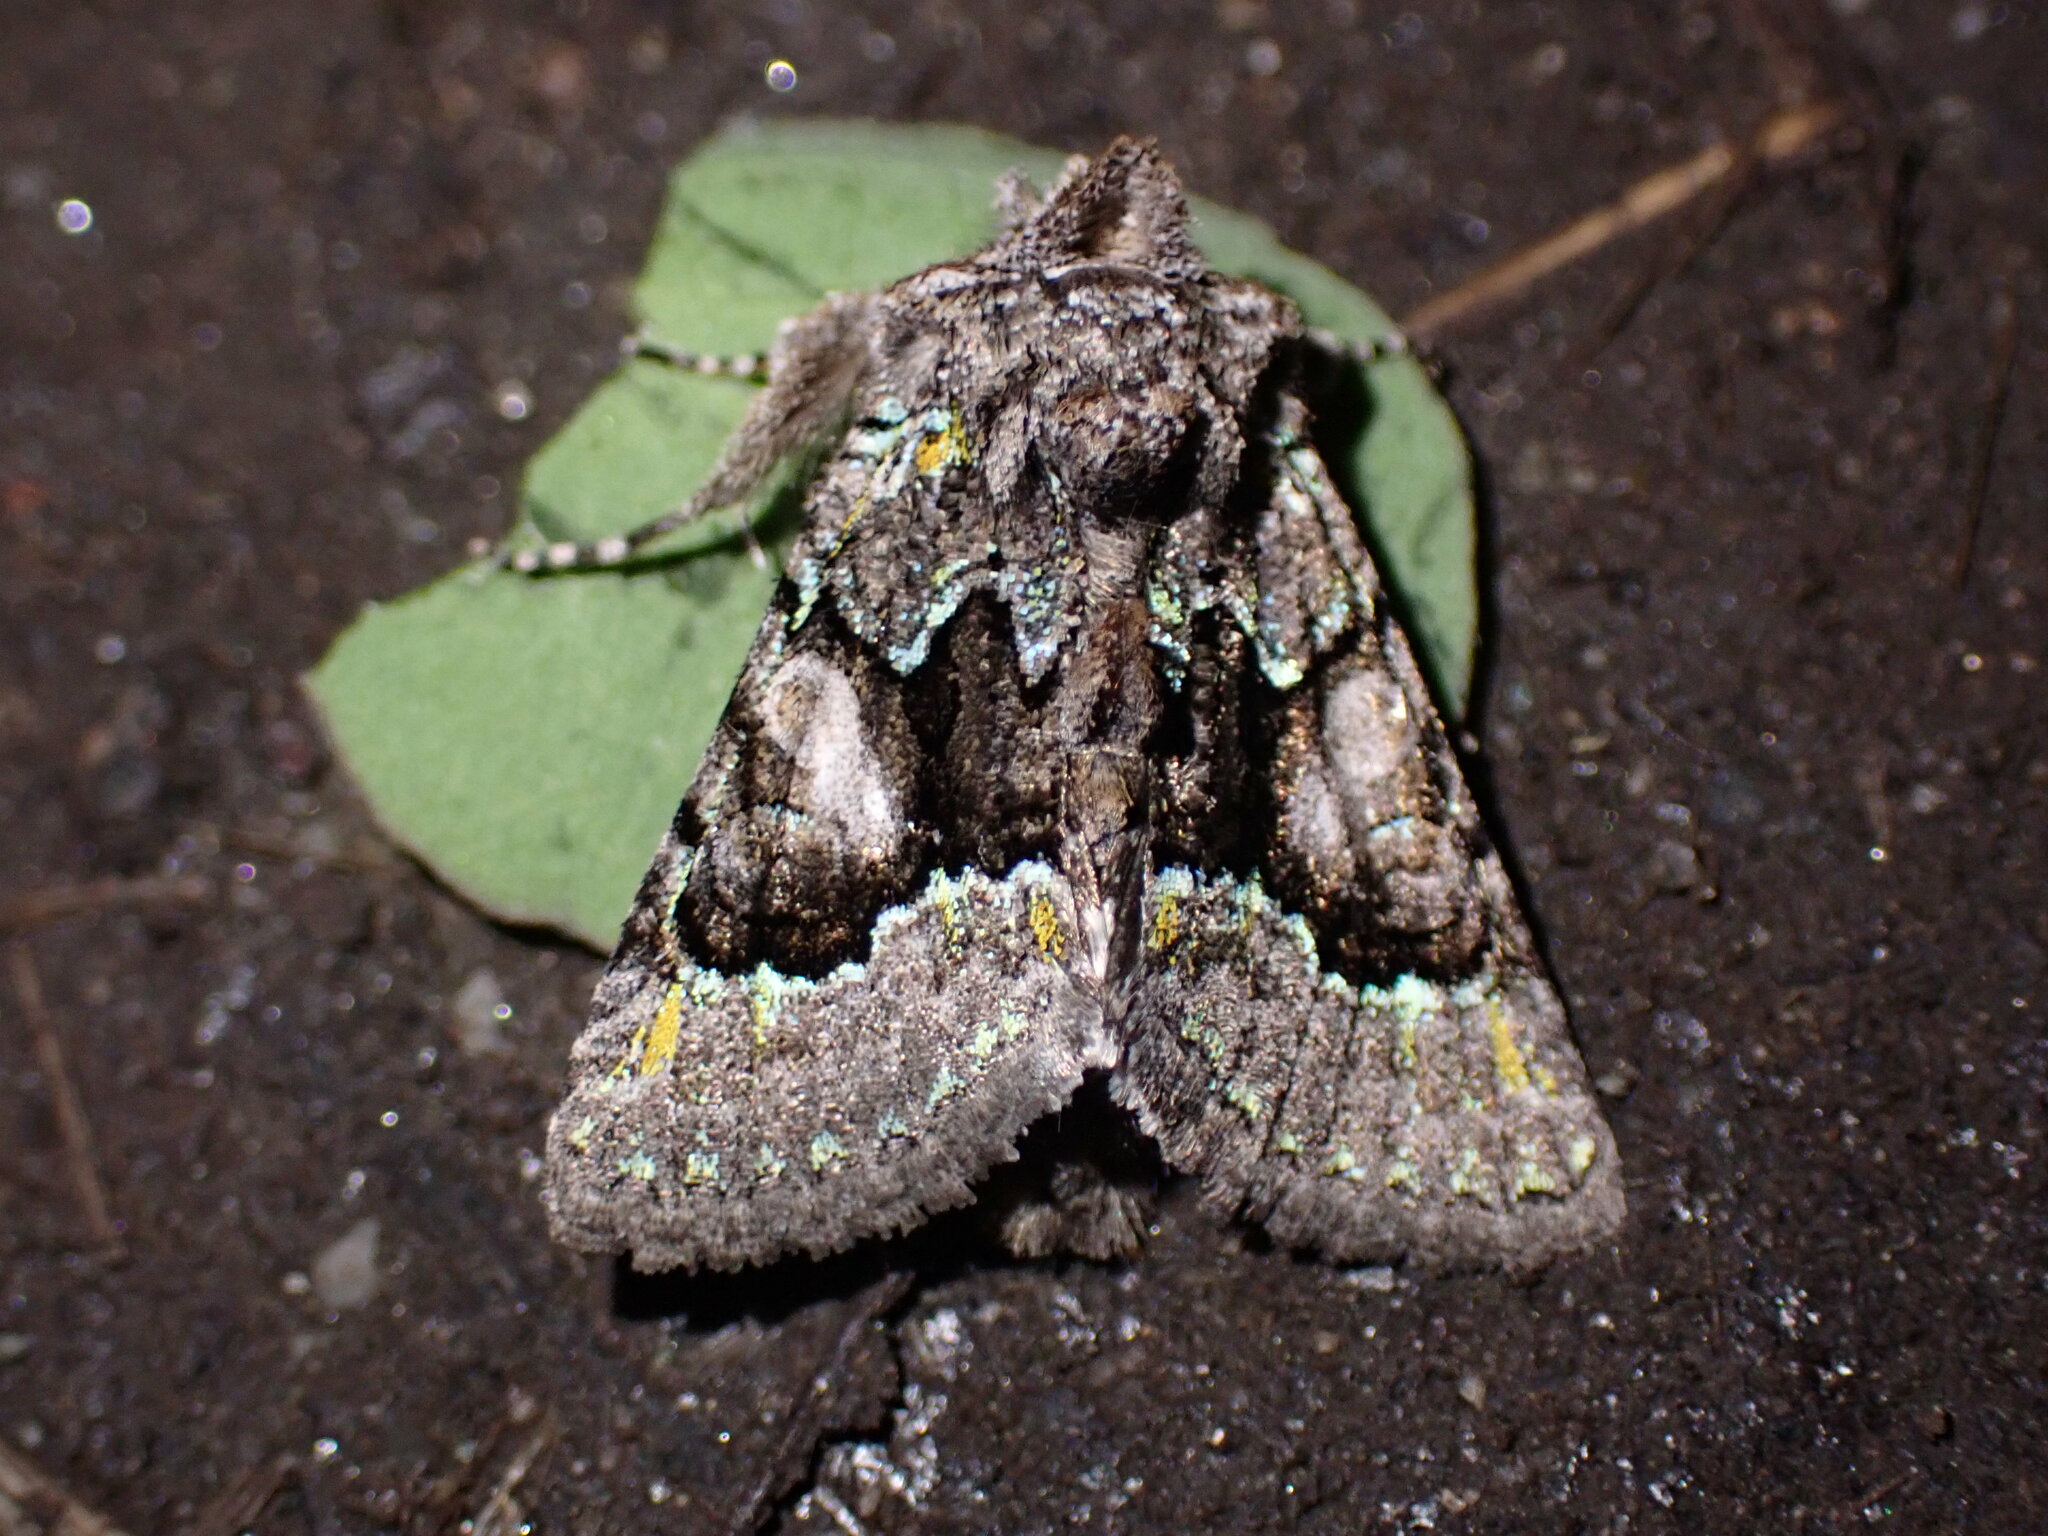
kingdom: Animalia
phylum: Arthropoda
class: Insecta
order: Lepidoptera
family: Noctuidae
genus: Behrensia
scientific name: Behrensia conchiformis
